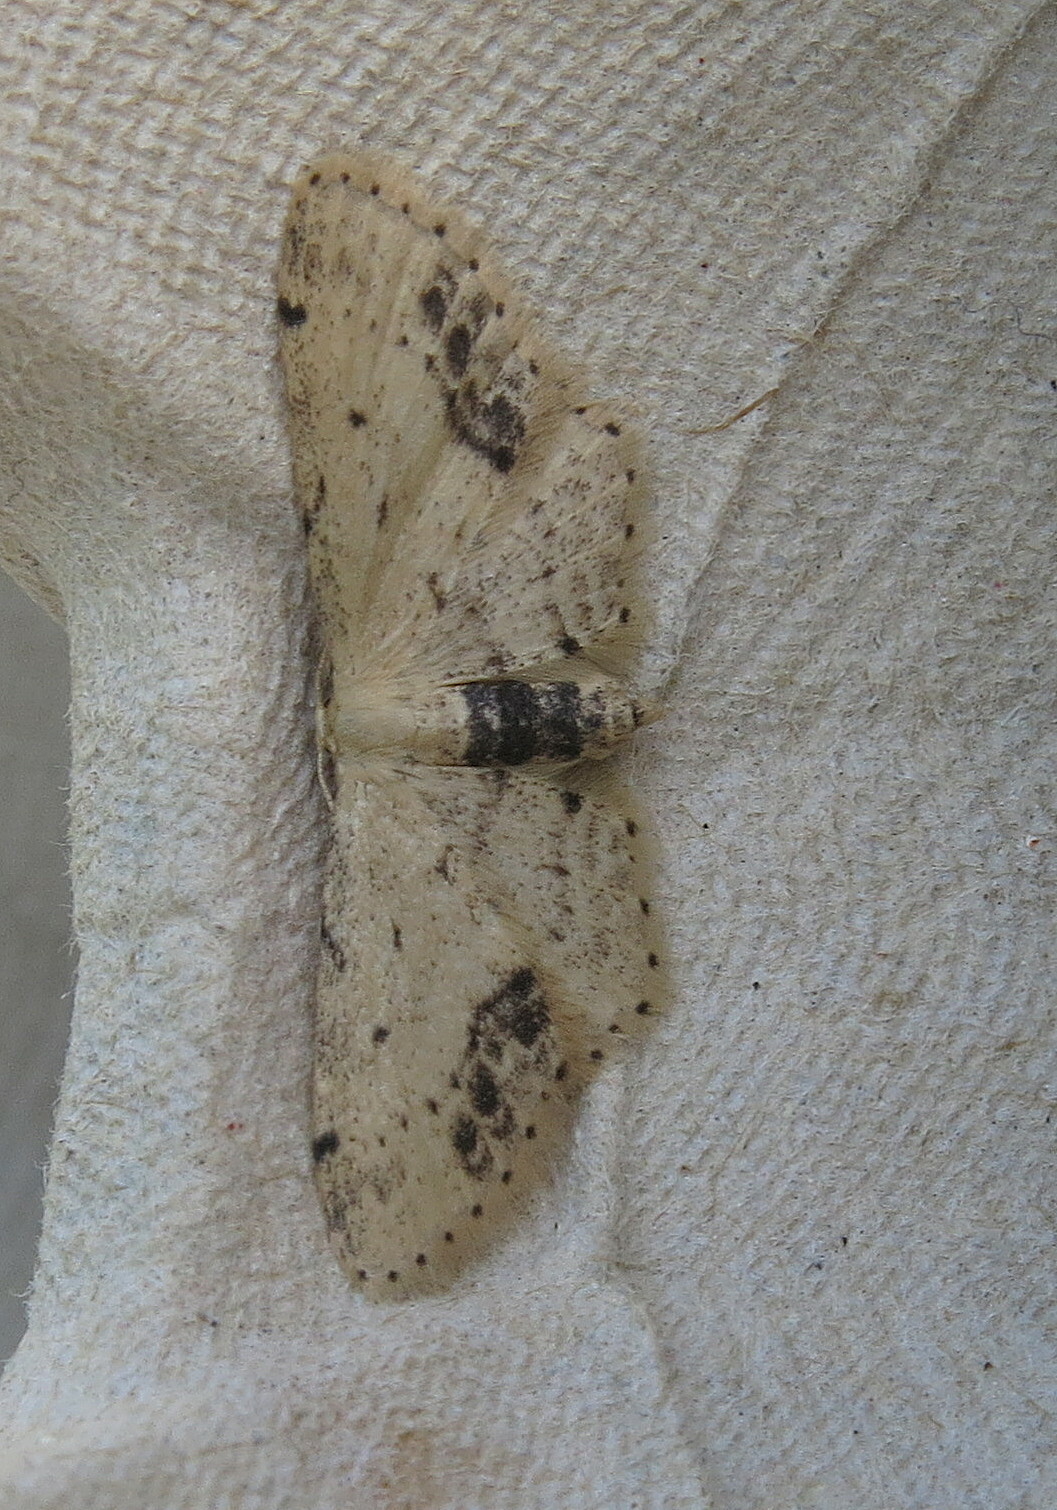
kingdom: Animalia
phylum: Arthropoda
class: Insecta
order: Lepidoptera
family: Geometridae
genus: Idaea
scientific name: Idaea dimidiata
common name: Single-dotted wave
